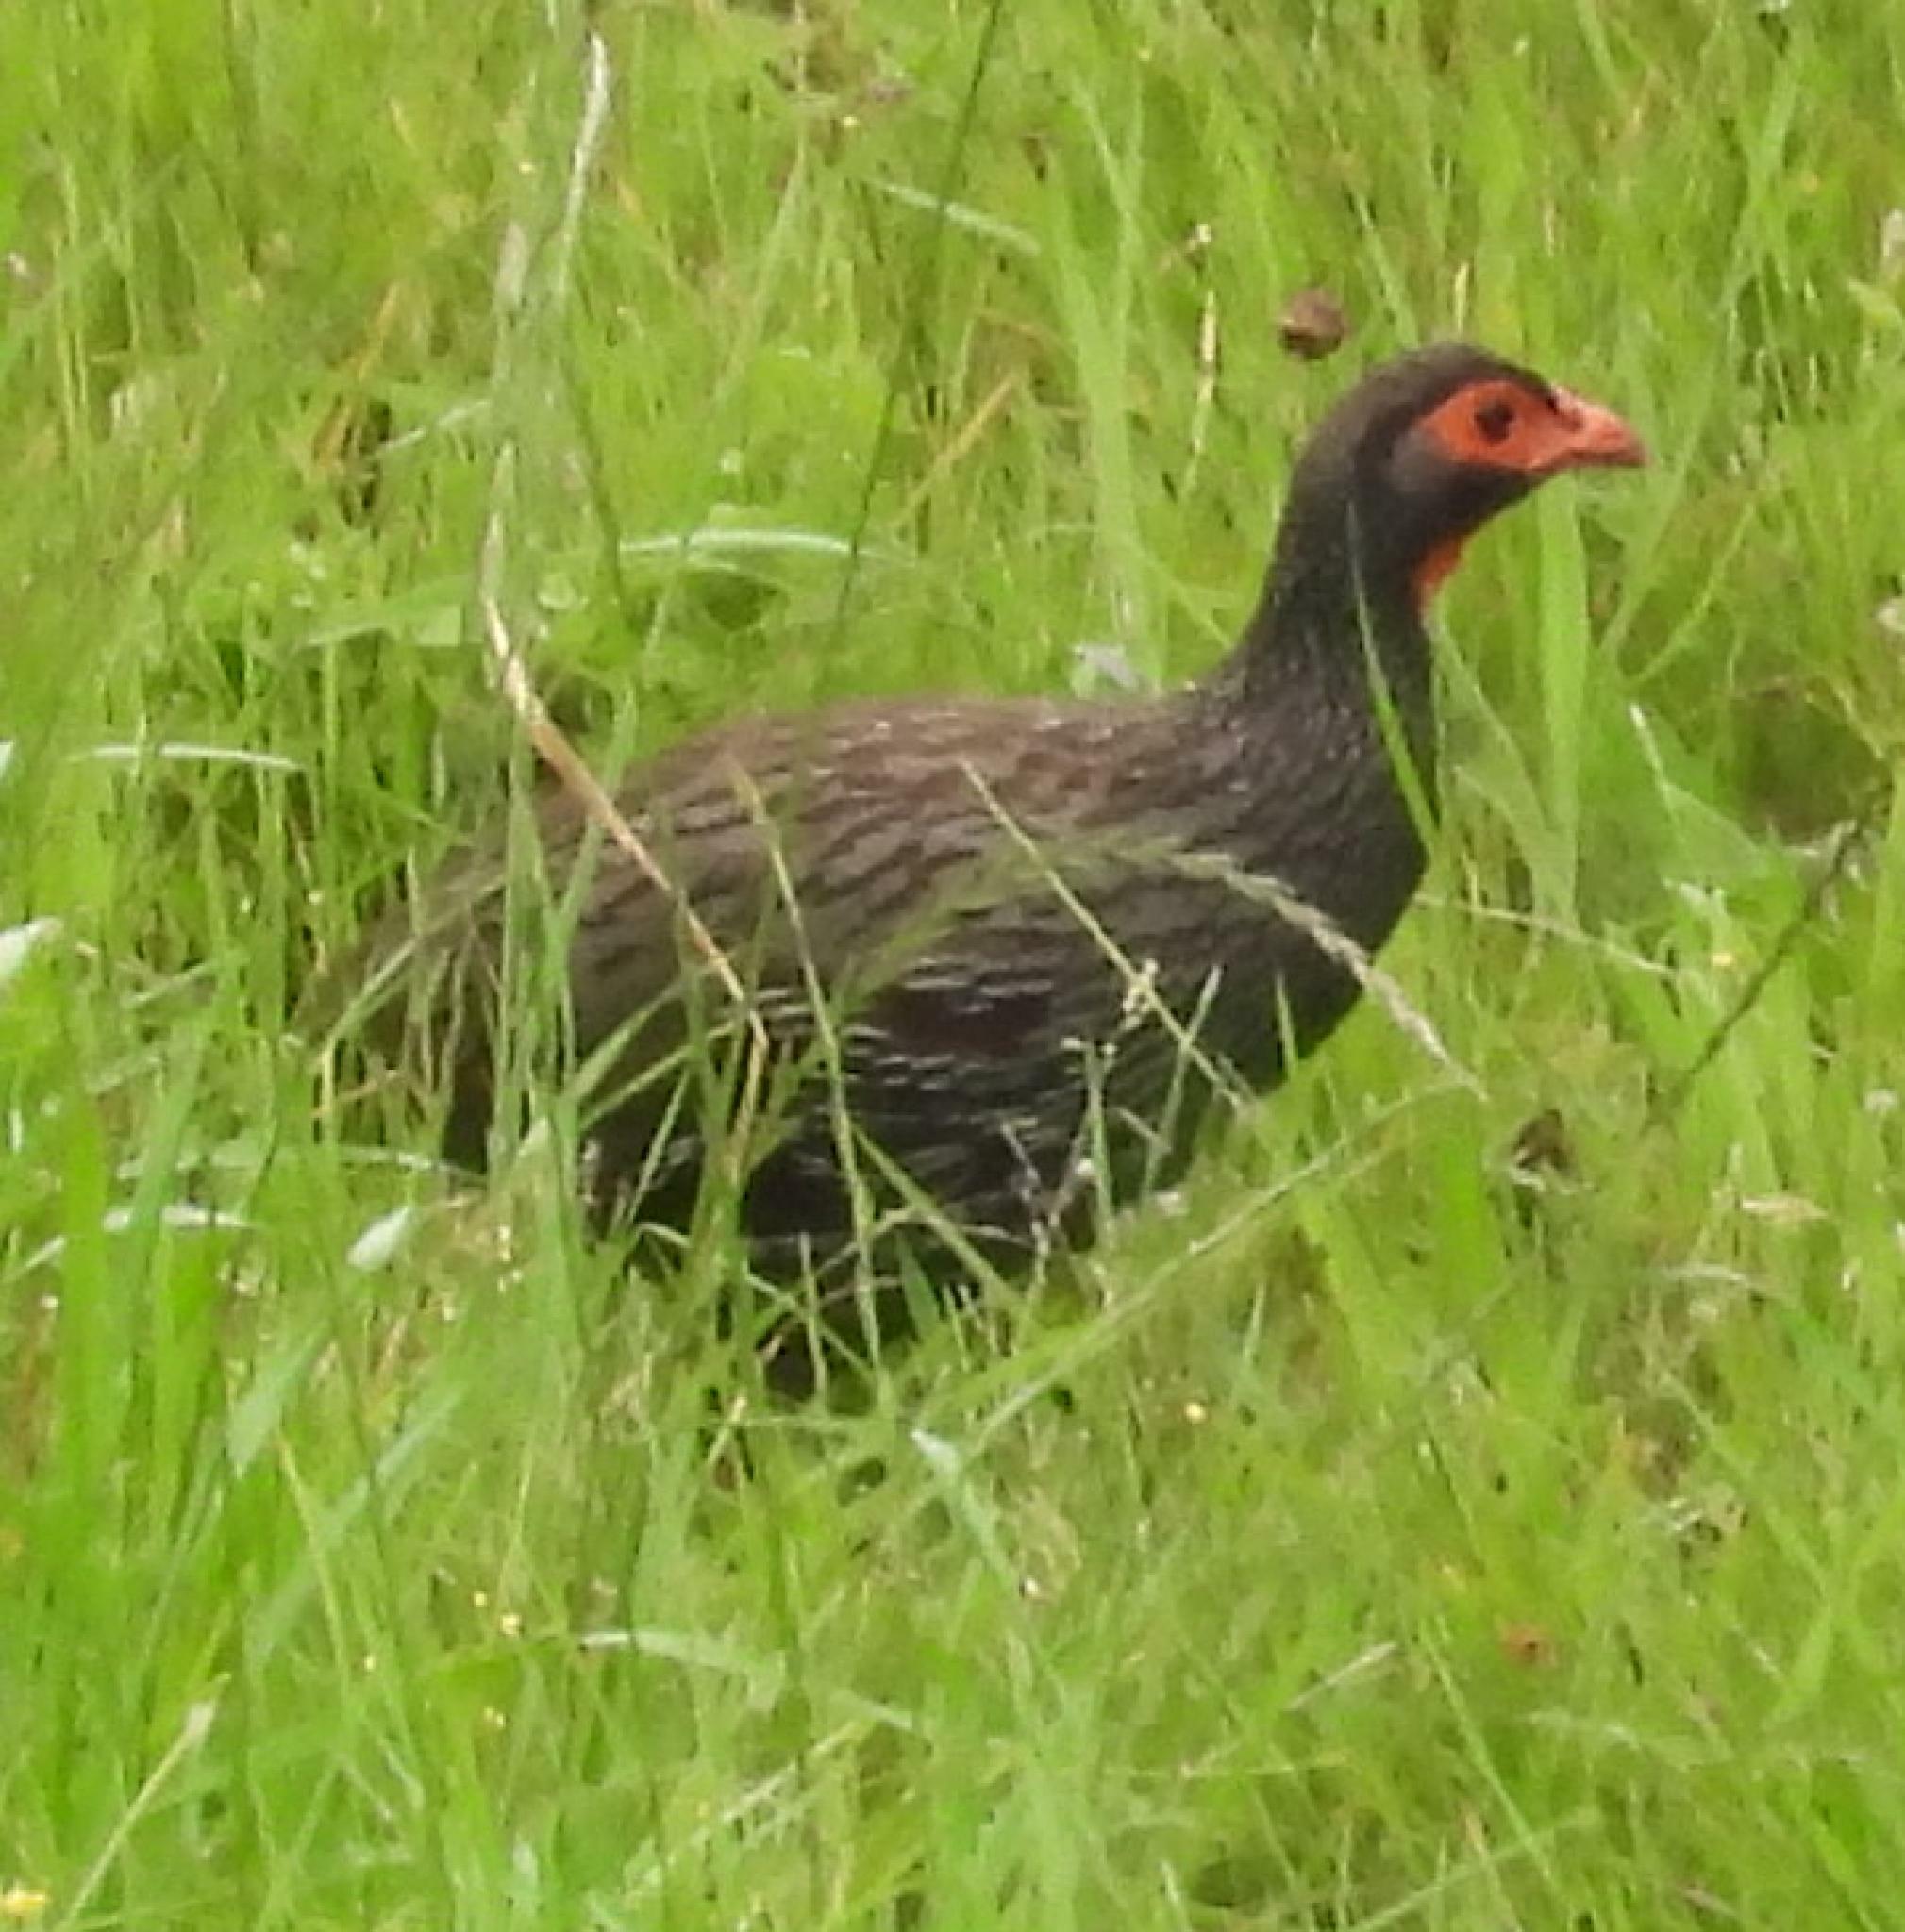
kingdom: Animalia
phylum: Chordata
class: Aves
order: Galliformes
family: Phasianidae
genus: Pternistis
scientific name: Pternistis afer
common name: Red-necked spurfowl
